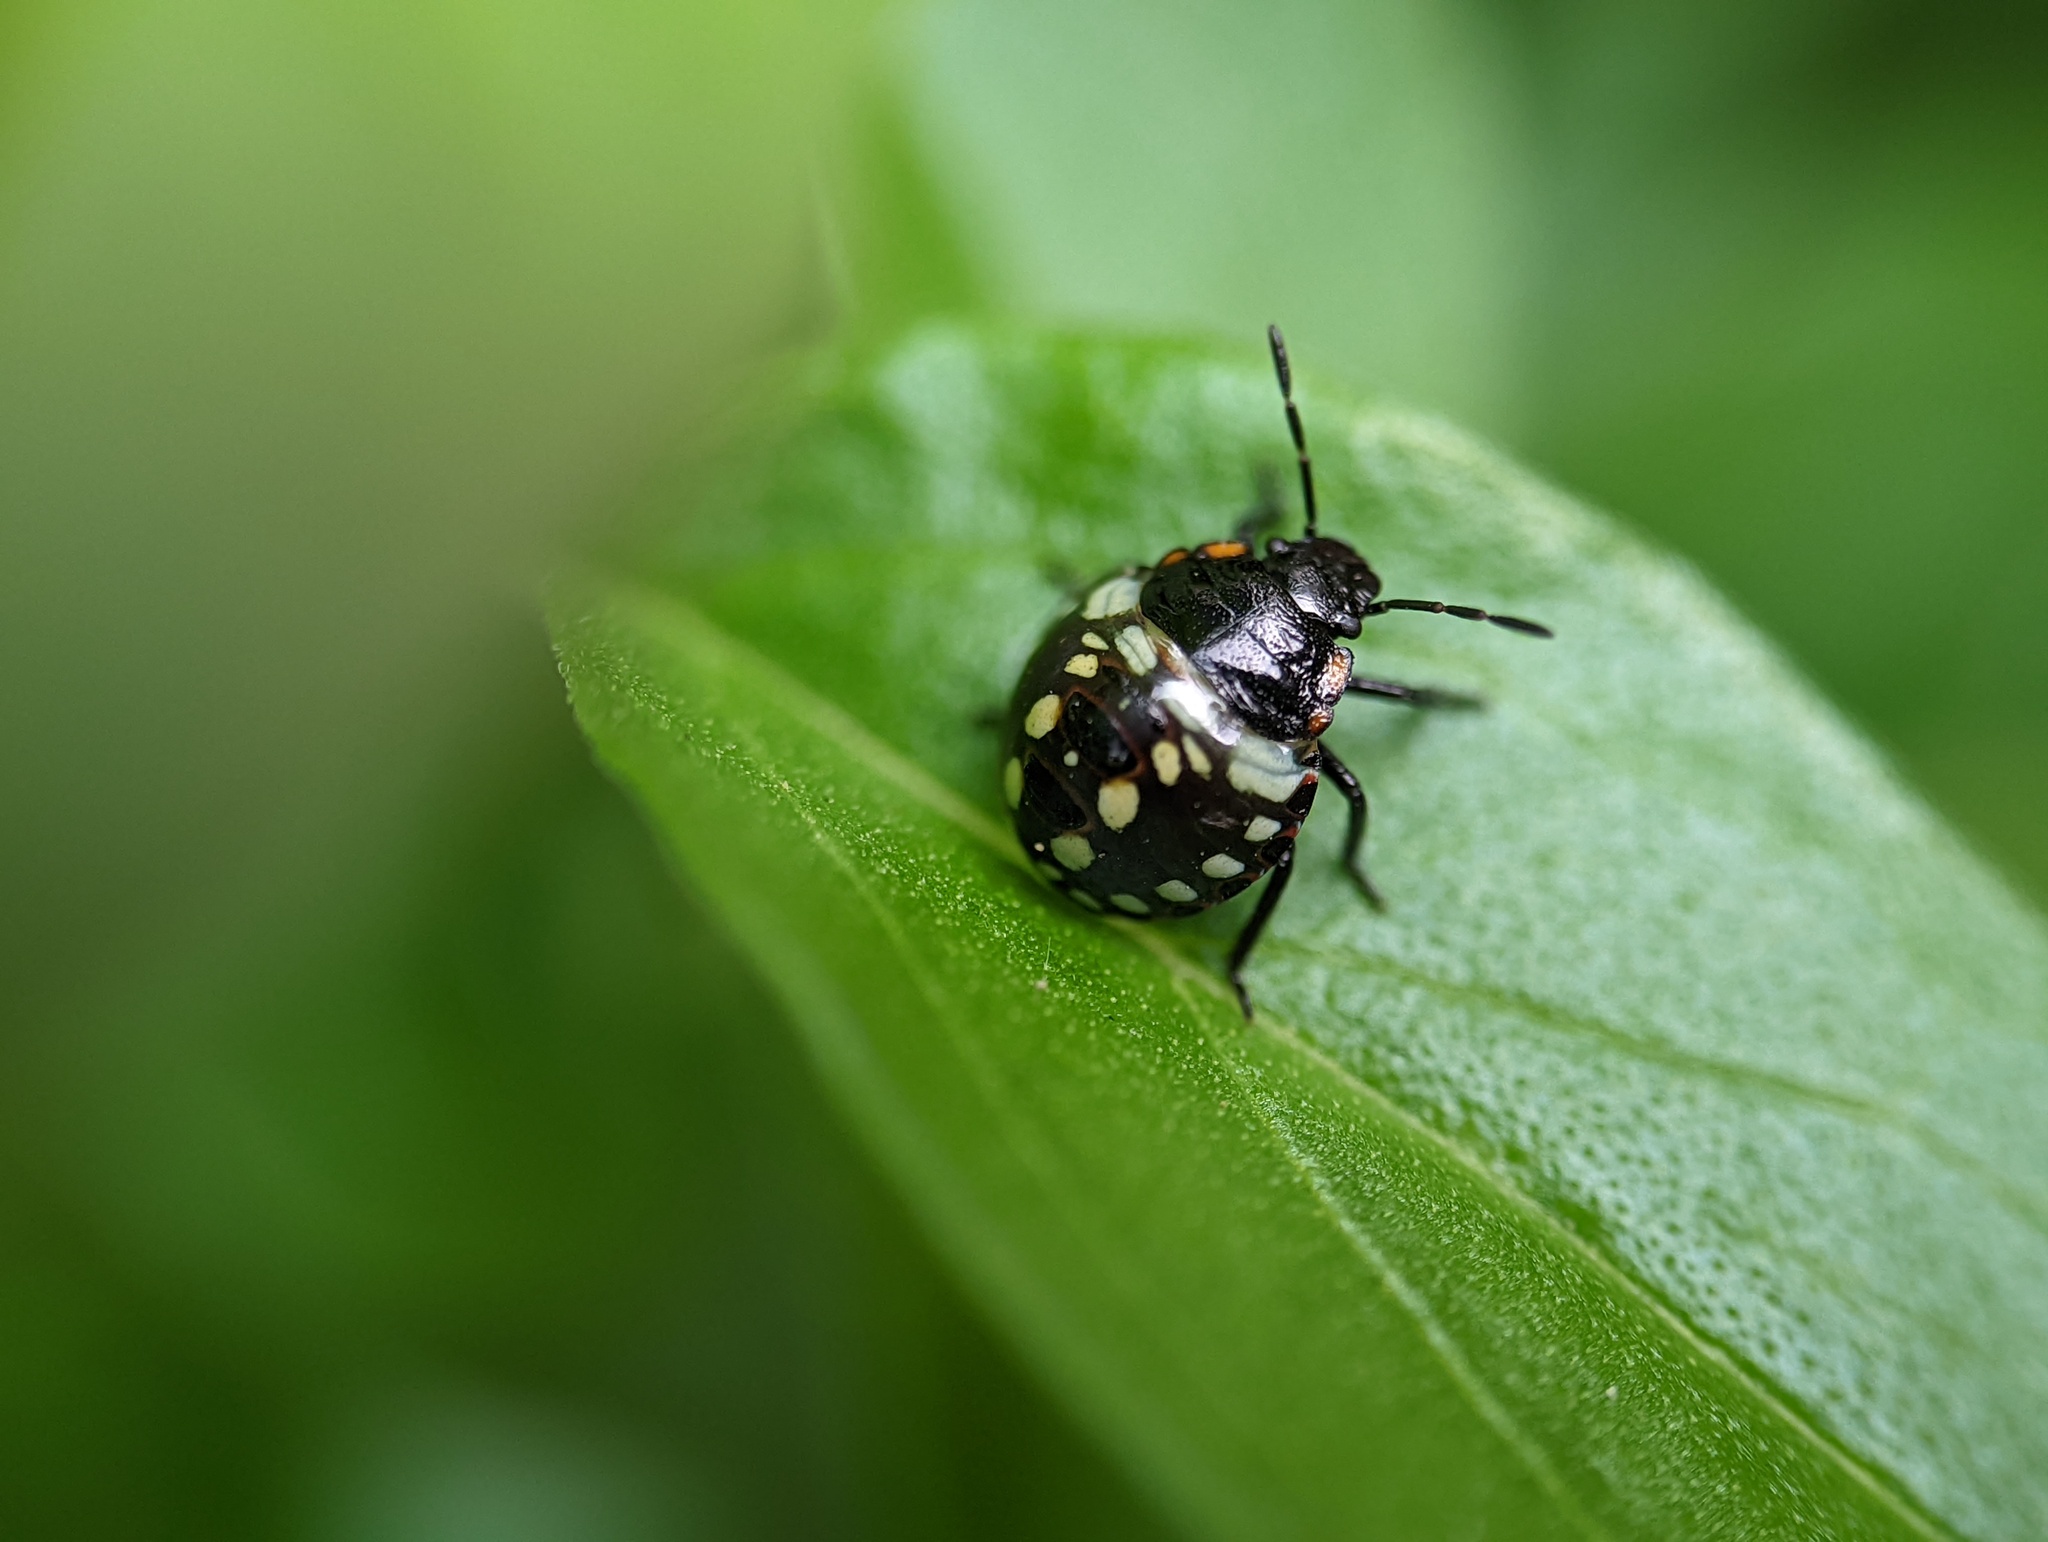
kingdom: Animalia
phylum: Arthropoda
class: Insecta
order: Hemiptera
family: Pentatomidae
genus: Nezara
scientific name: Nezara viridula
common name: Southern green stink bug
